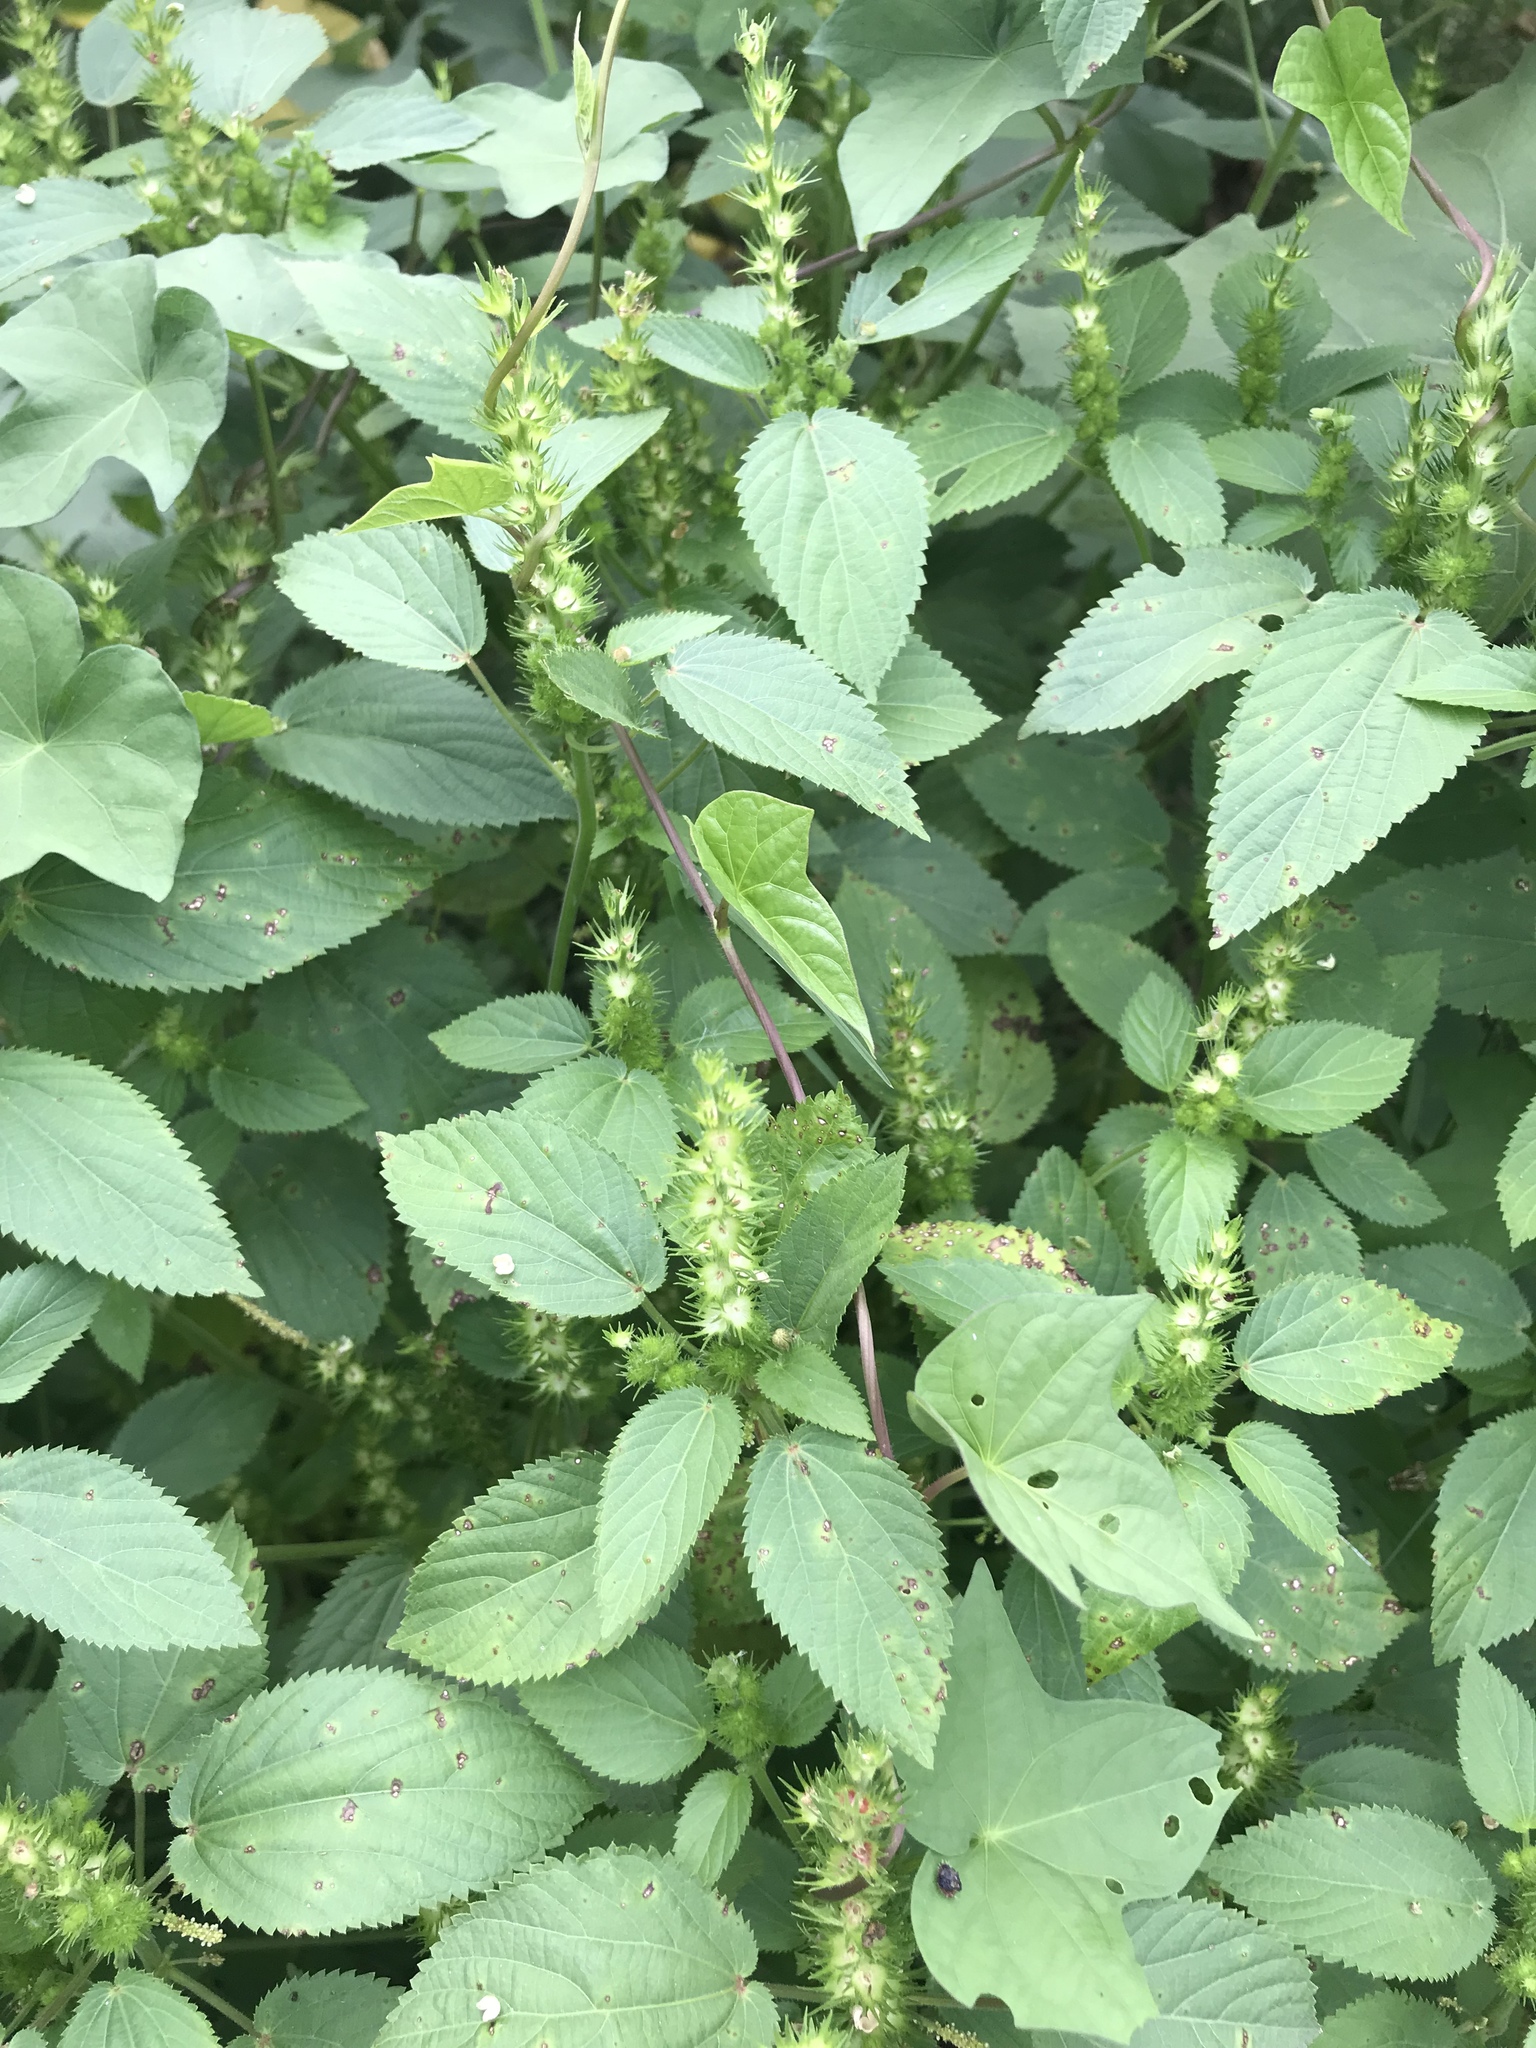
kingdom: Plantae
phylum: Tracheophyta
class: Magnoliopsida
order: Malpighiales
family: Euphorbiaceae
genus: Acalypha
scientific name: Acalypha ostryifolia
